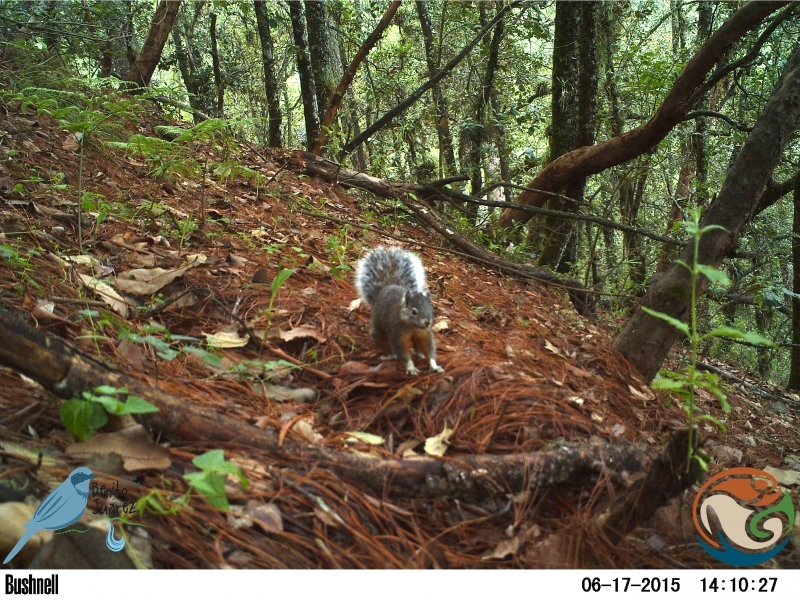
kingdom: Animalia
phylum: Chordata
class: Mammalia
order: Rodentia
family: Sciuridae
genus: Sciurus
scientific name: Sciurus aureogaster
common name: Red-bellied squirrel
